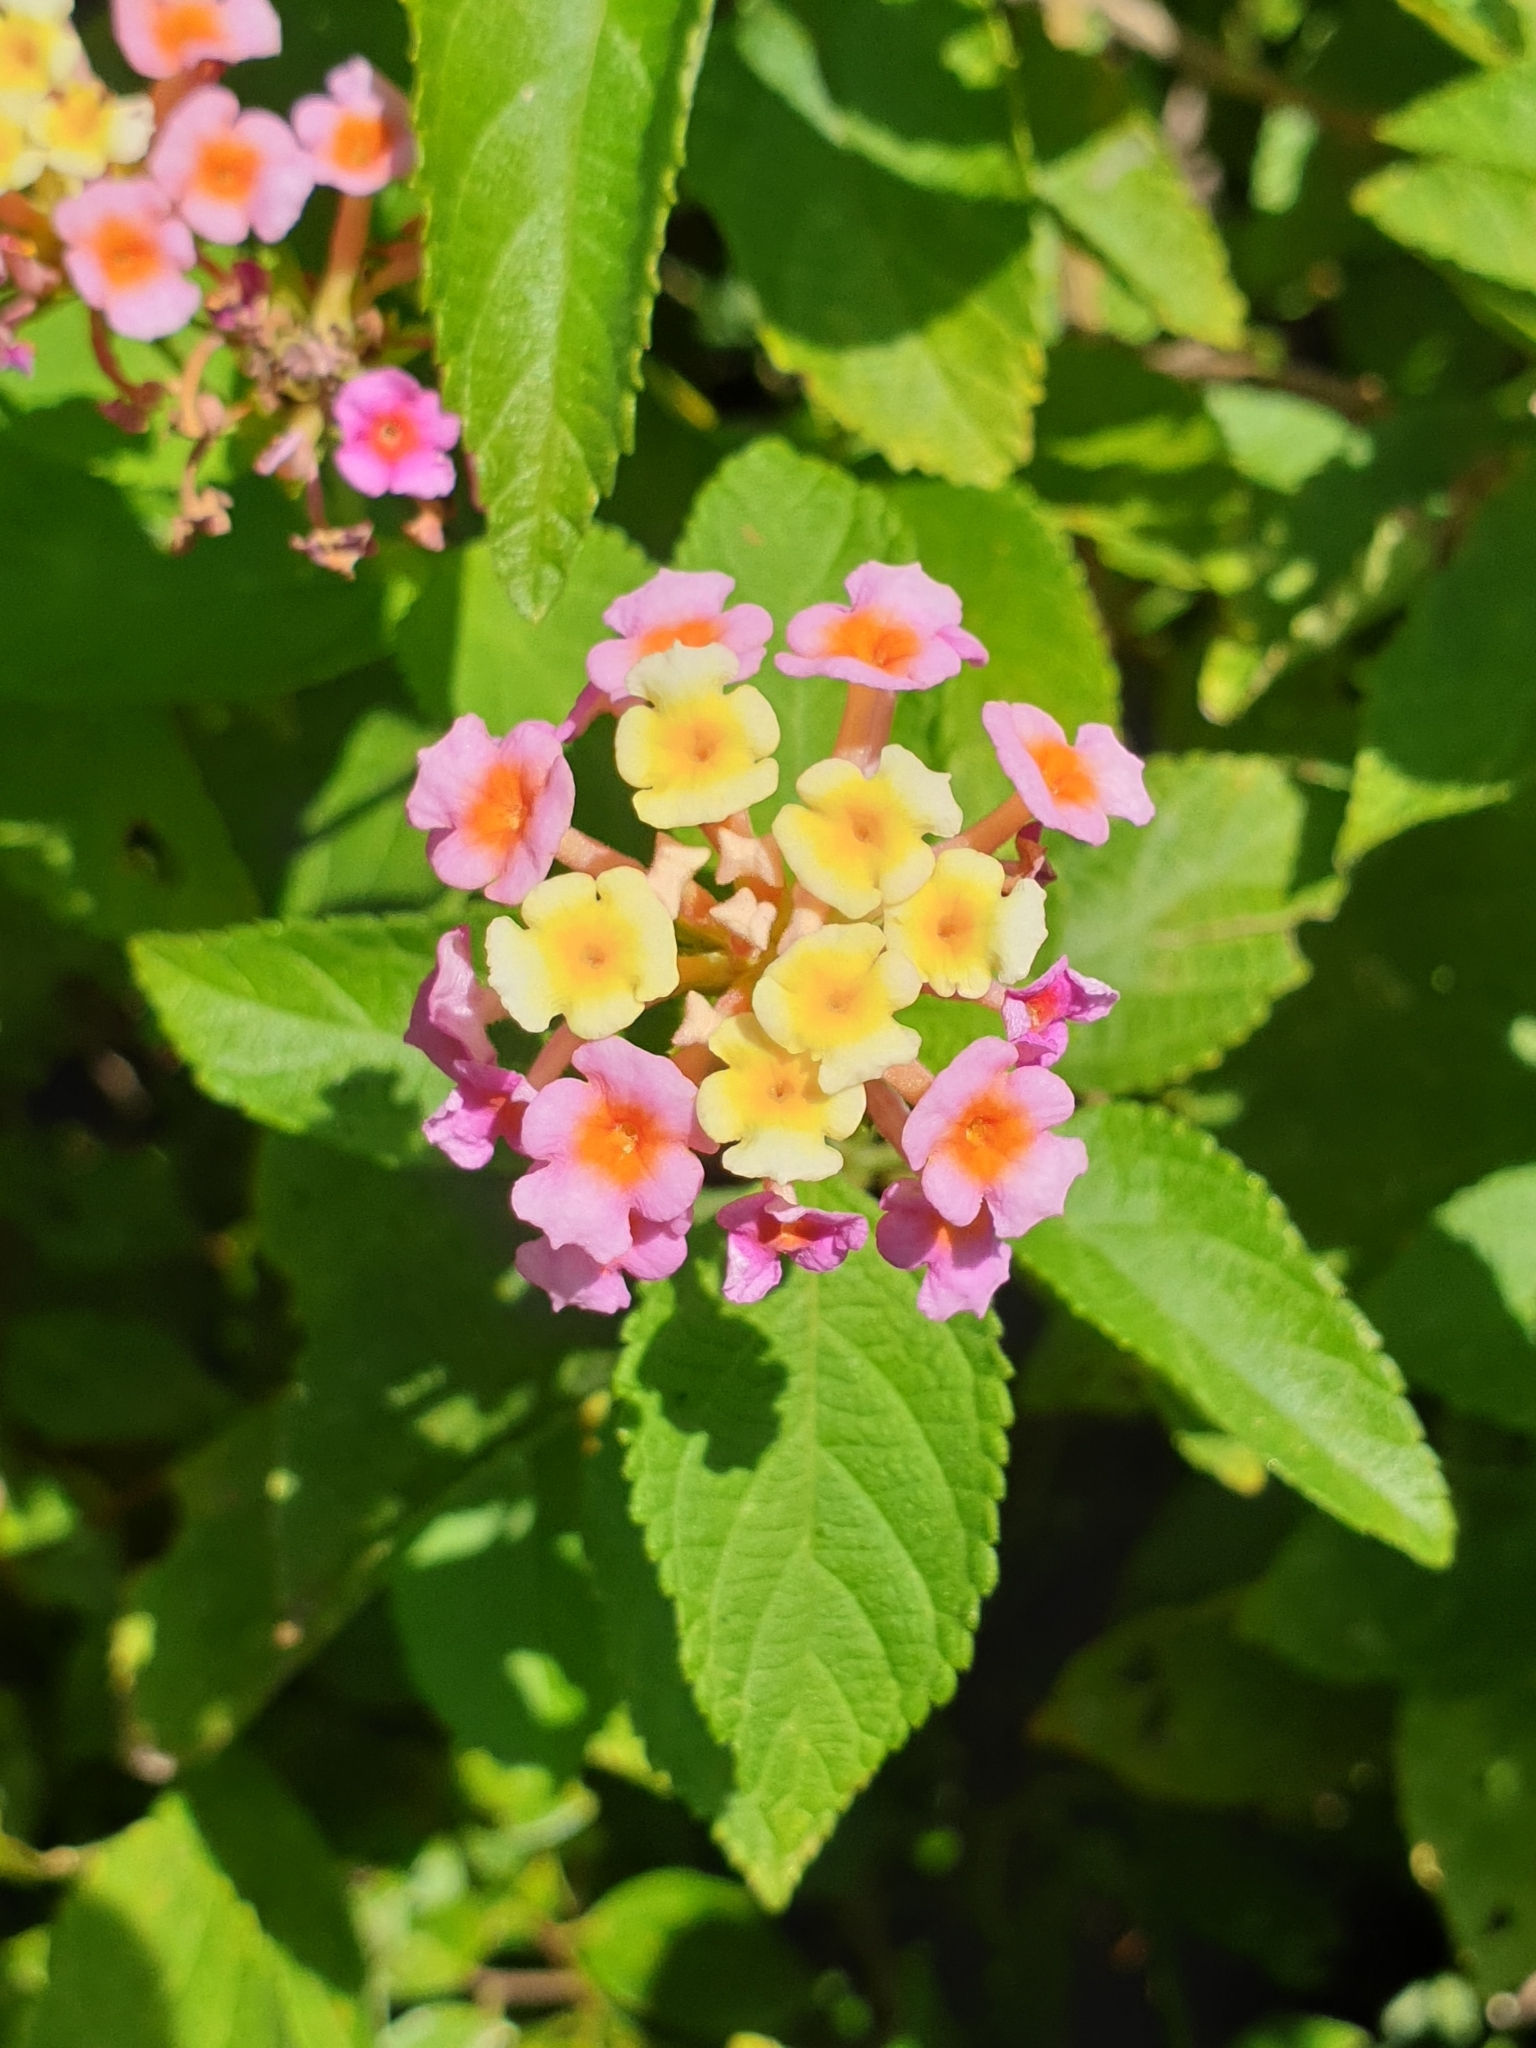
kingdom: Plantae
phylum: Tracheophyta
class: Magnoliopsida
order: Lamiales
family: Verbenaceae
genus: Lantana
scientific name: Lantana camara
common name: Lantana
